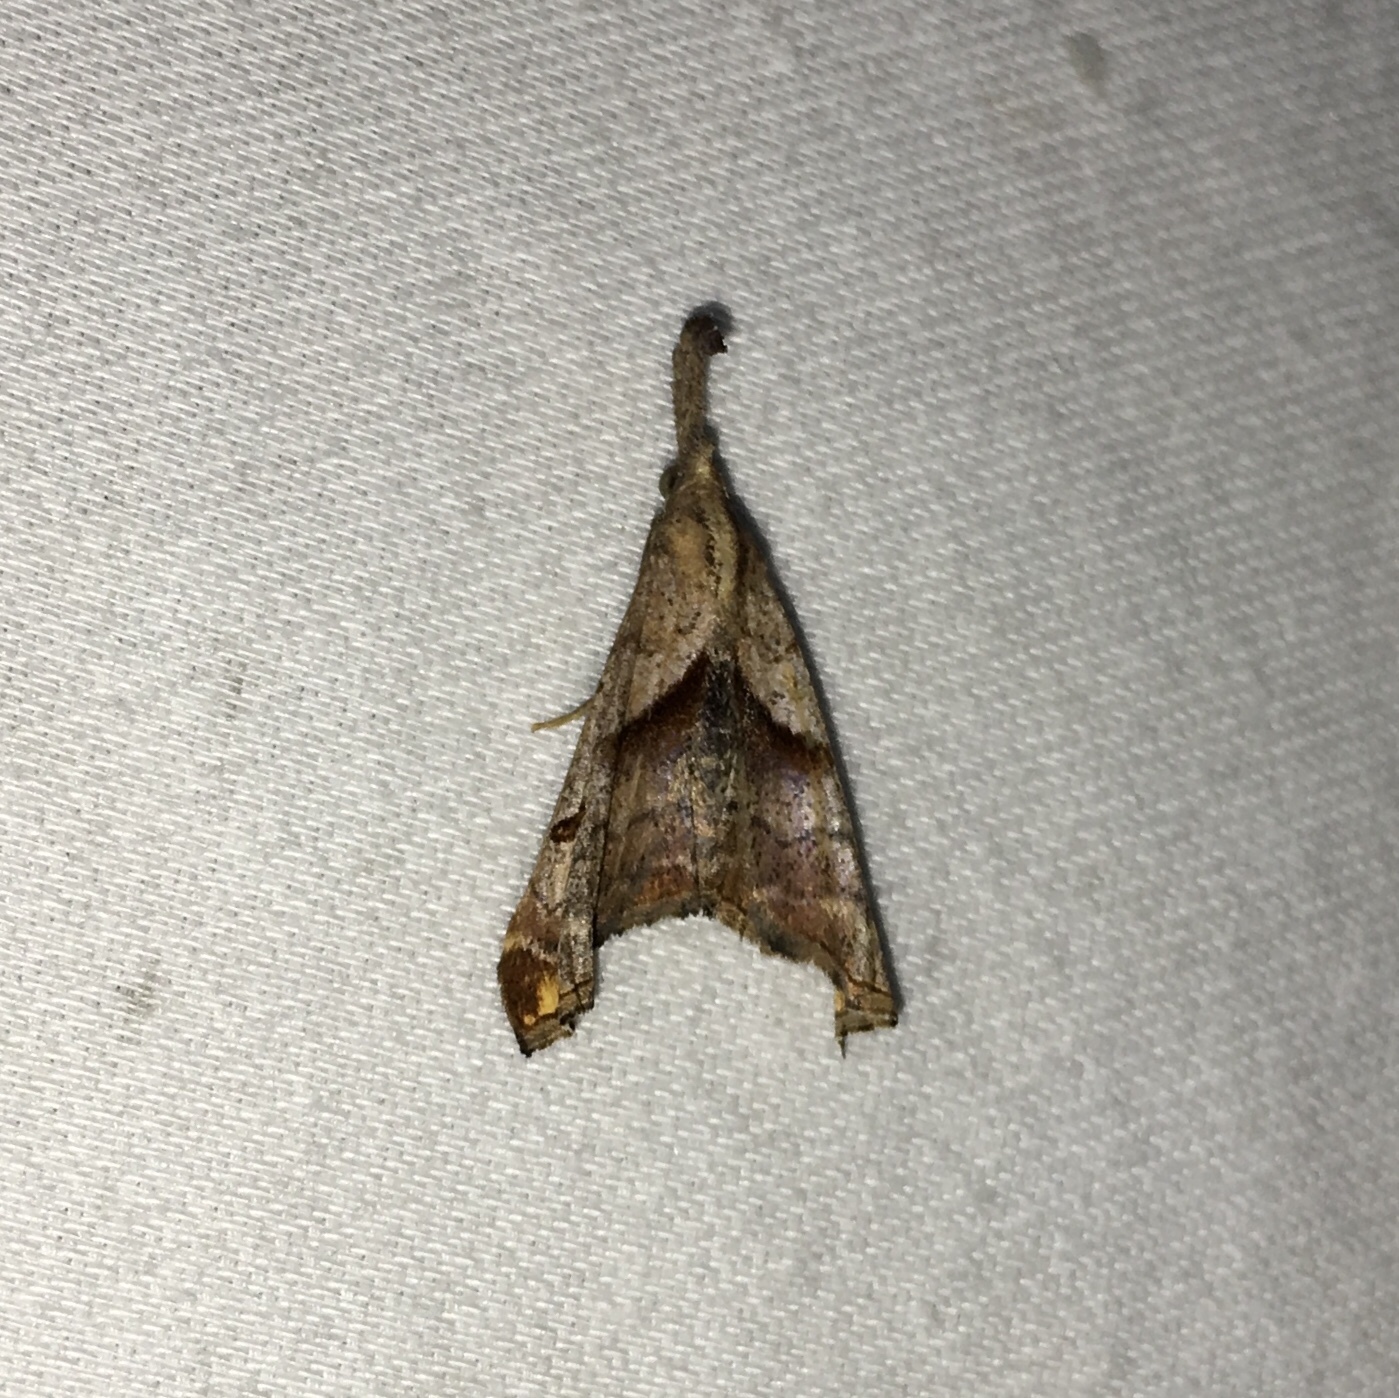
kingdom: Animalia
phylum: Arthropoda
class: Insecta
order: Lepidoptera
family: Erebidae
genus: Palthis
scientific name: Palthis angulalis
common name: Dark-spotted palthis moth
